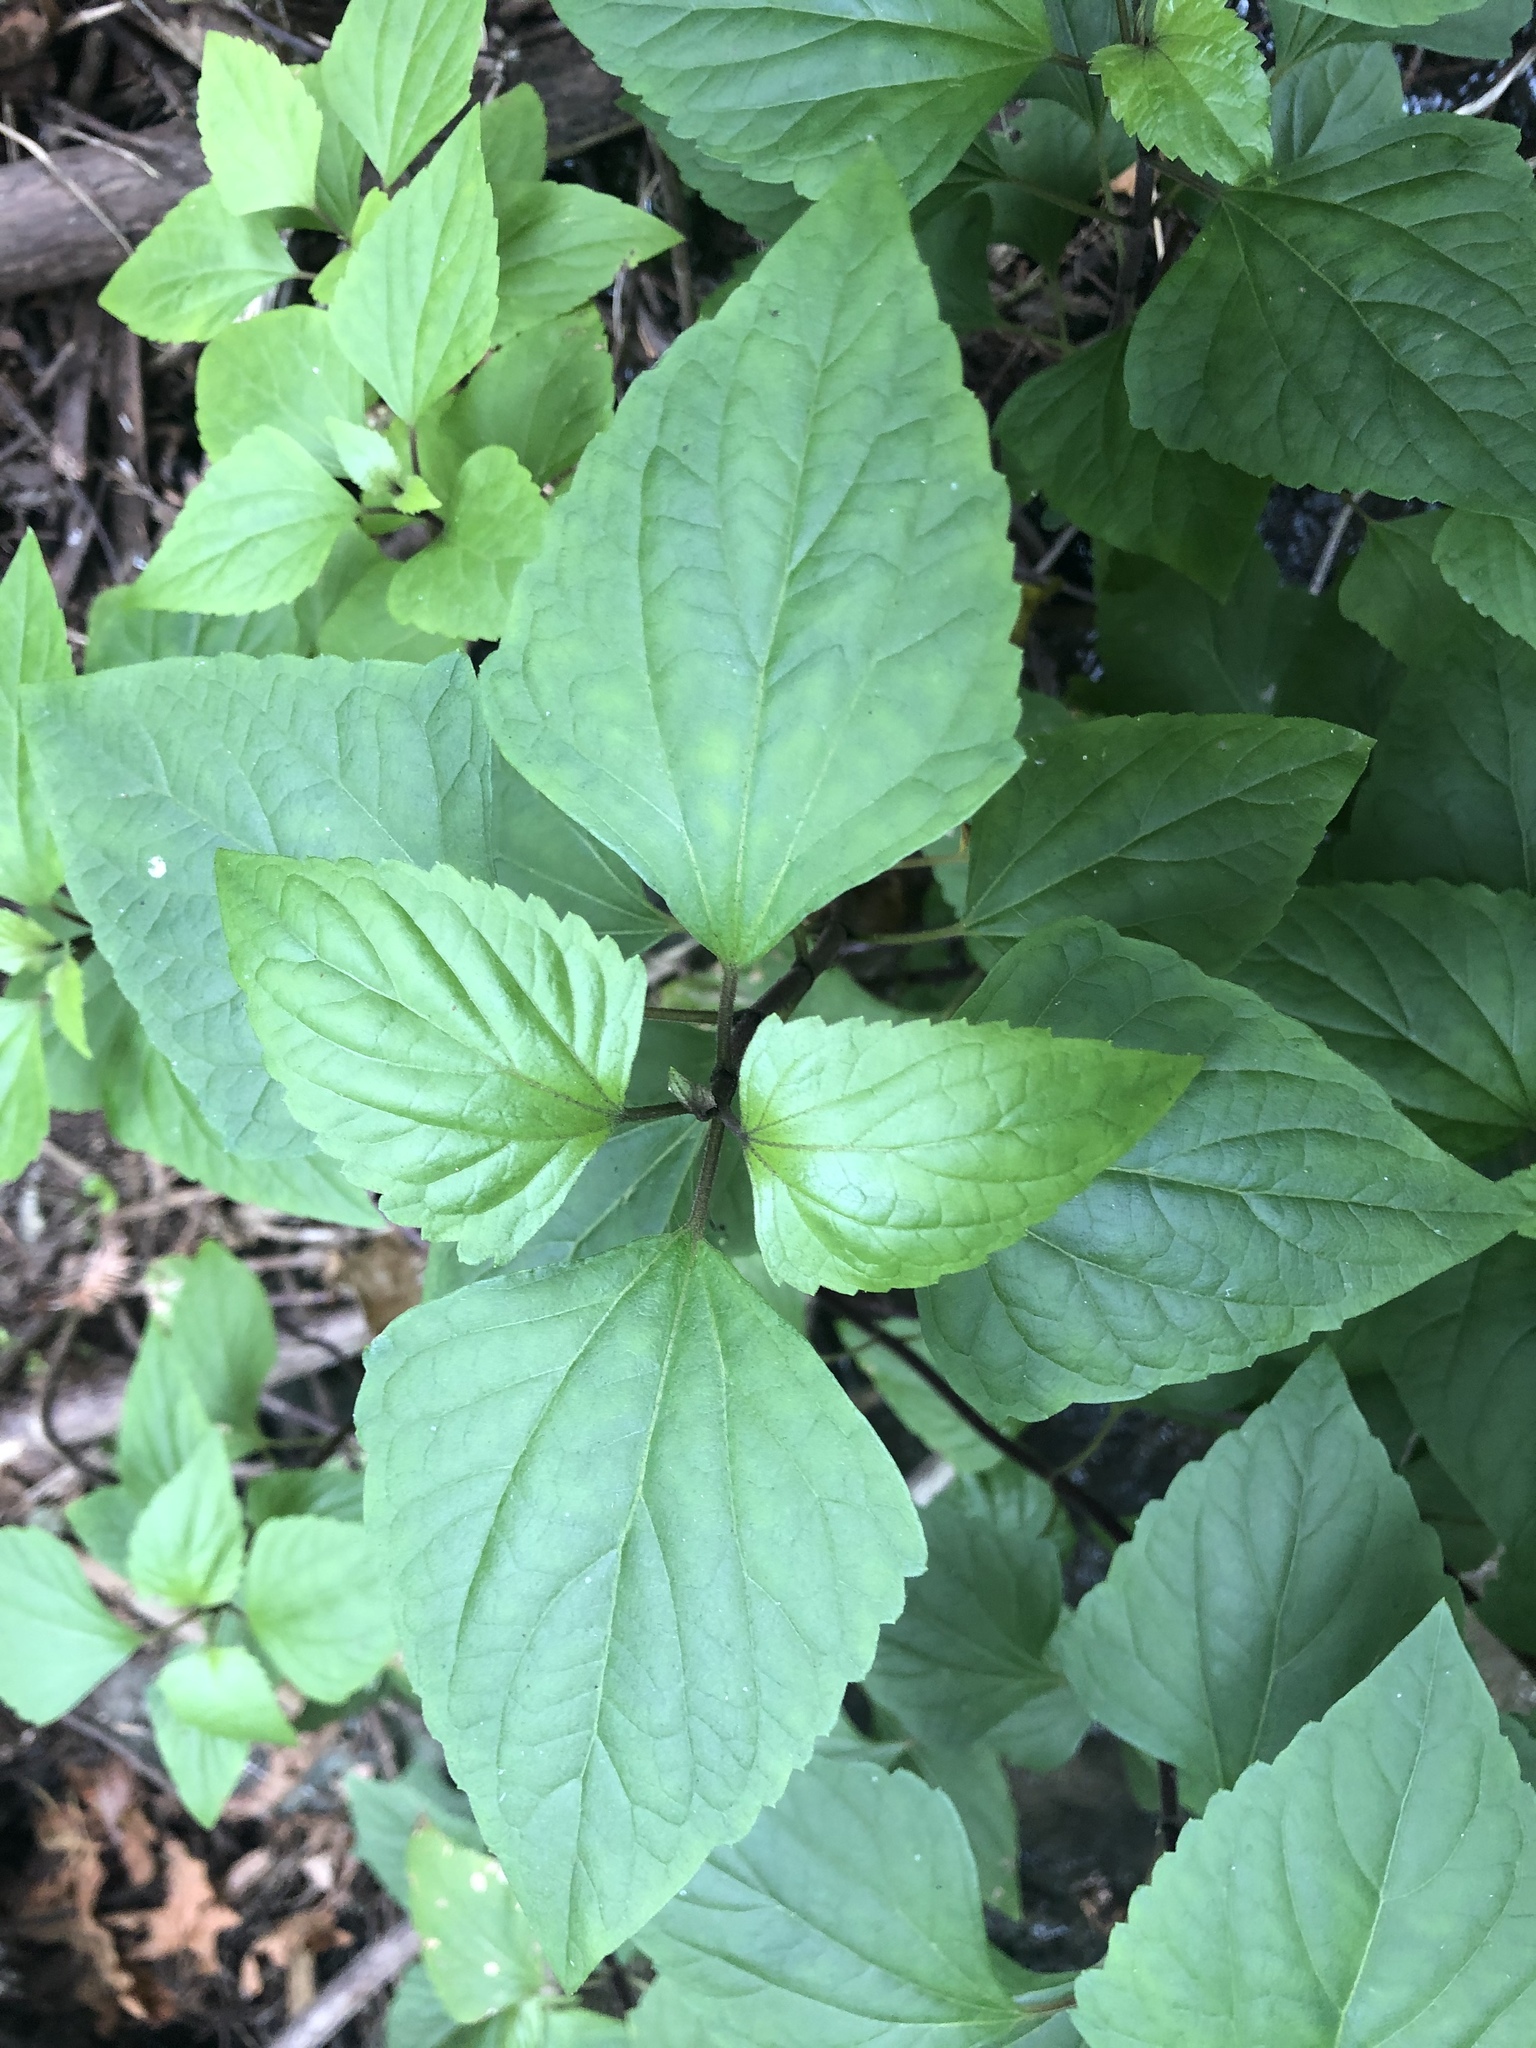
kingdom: Plantae
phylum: Tracheophyta
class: Magnoliopsida
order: Asterales
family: Asteraceae
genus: Ageratina
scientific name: Ageratina adenophora
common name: Sticky snakeroot
